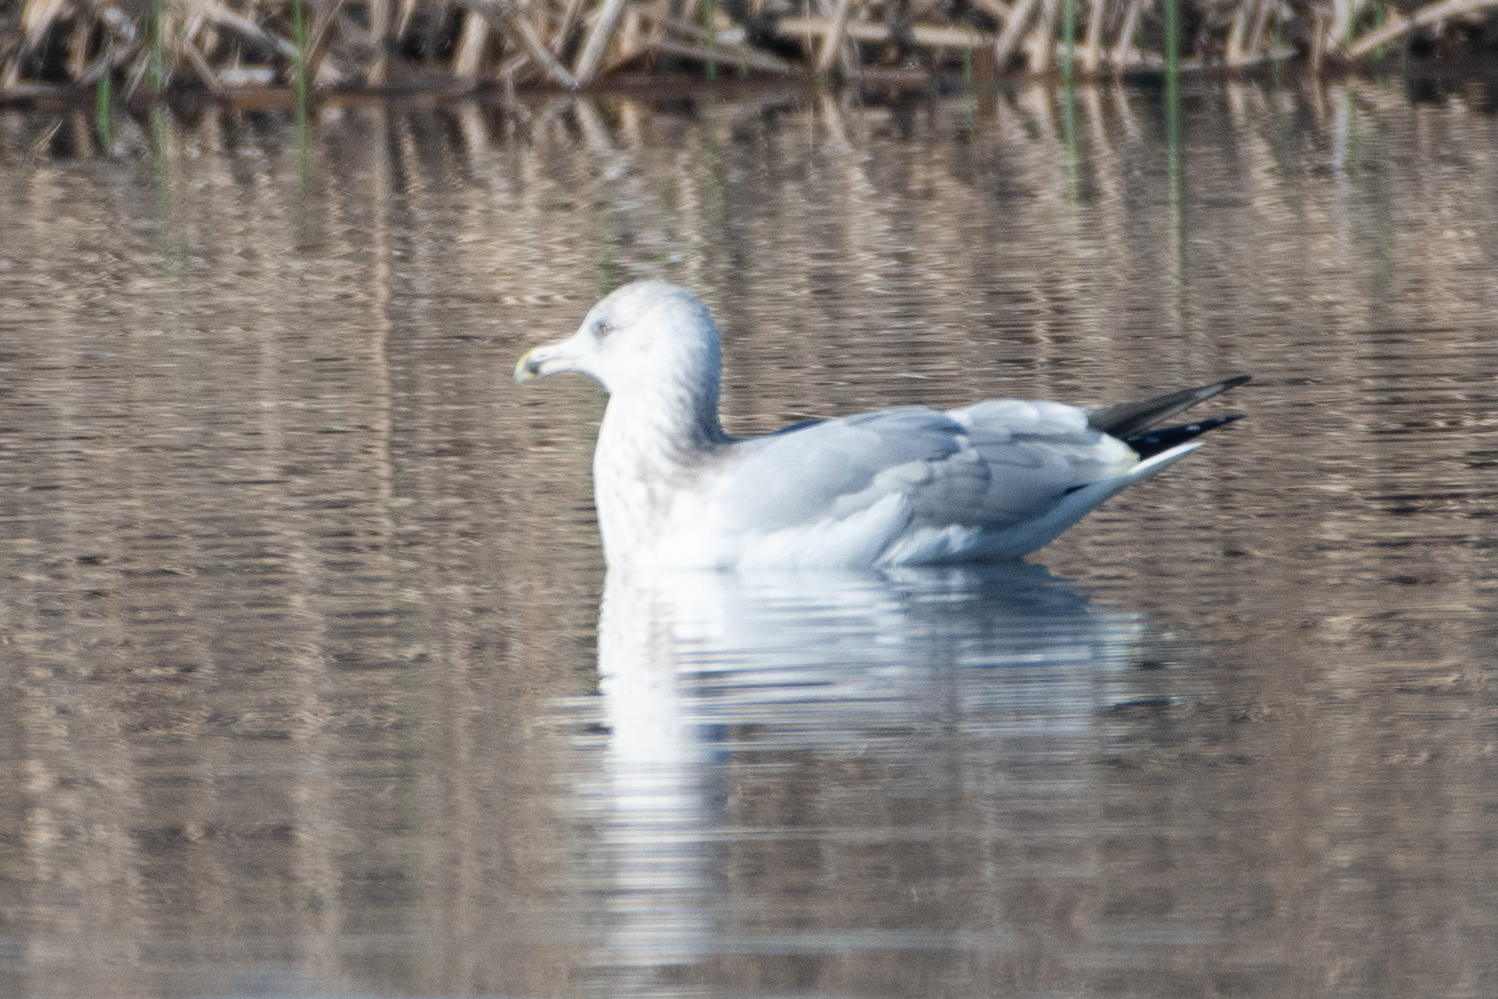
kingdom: Animalia
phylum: Chordata
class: Aves
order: Charadriiformes
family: Laridae
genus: Larus
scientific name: Larus argentatus
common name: Herring gull
